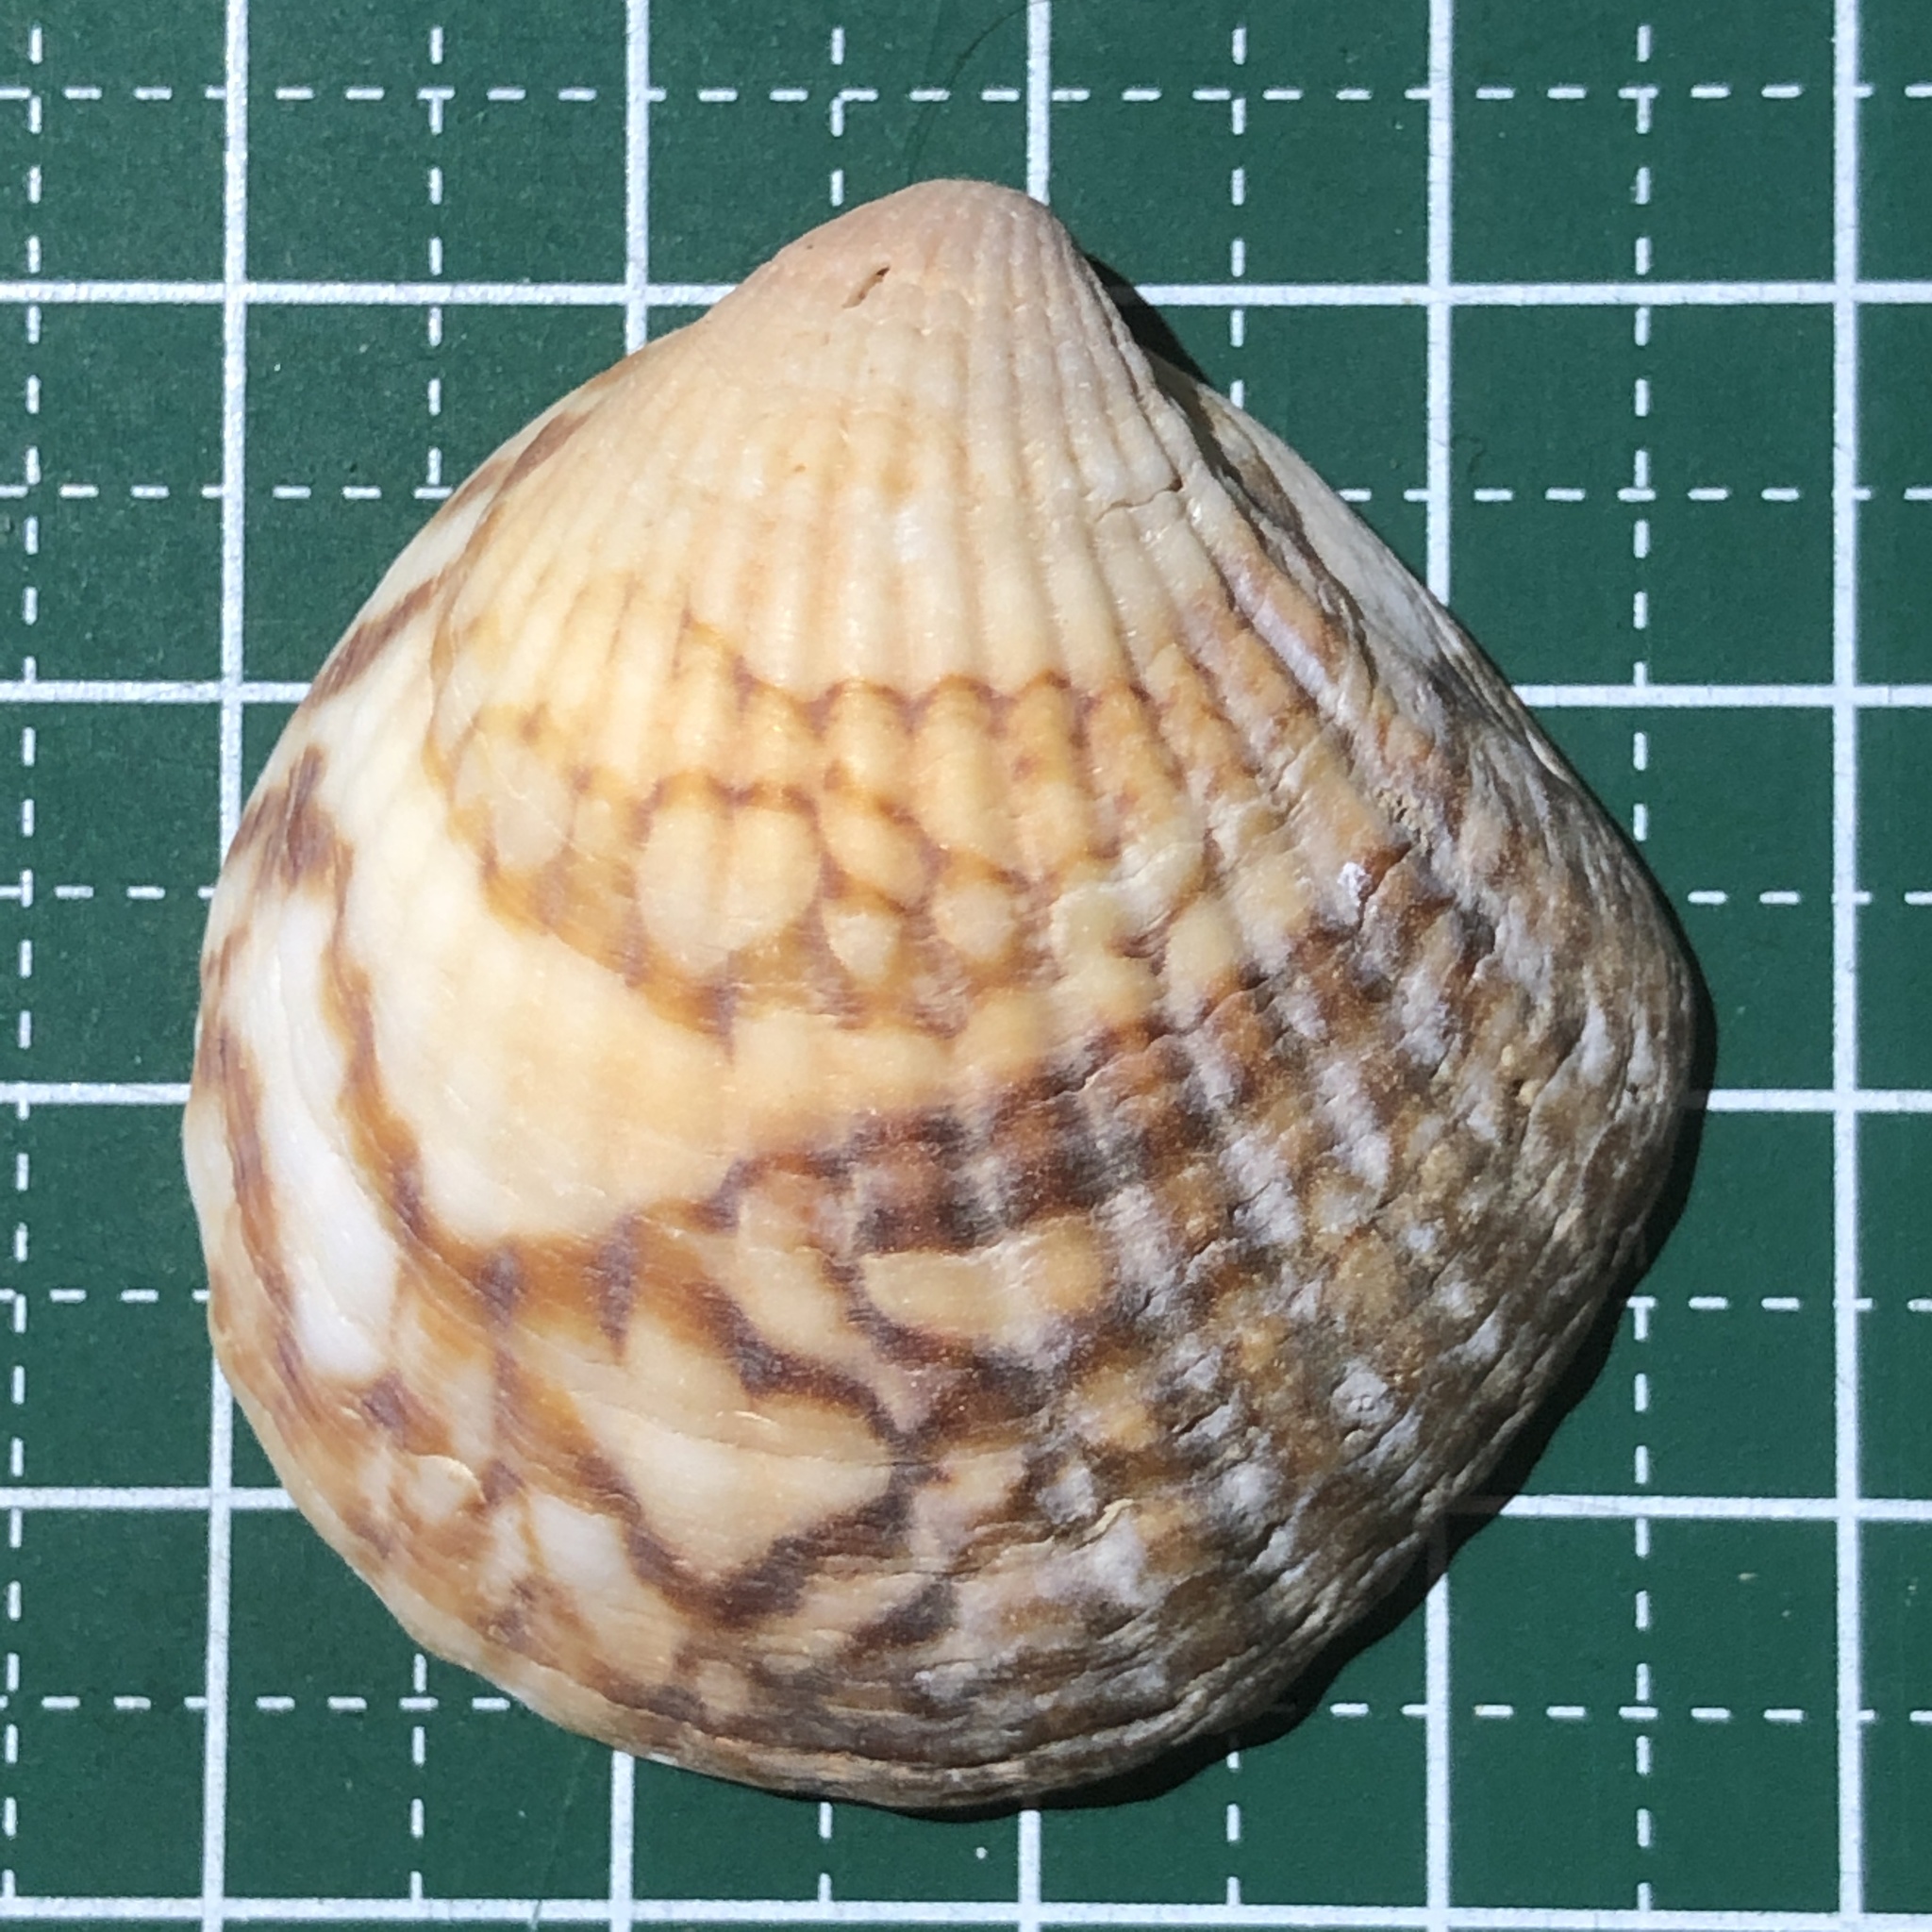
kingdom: Animalia
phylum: Mollusca
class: Bivalvia
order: Arcida
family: Glycymerididae
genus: Tucetona
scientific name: Tucetona auriflua
